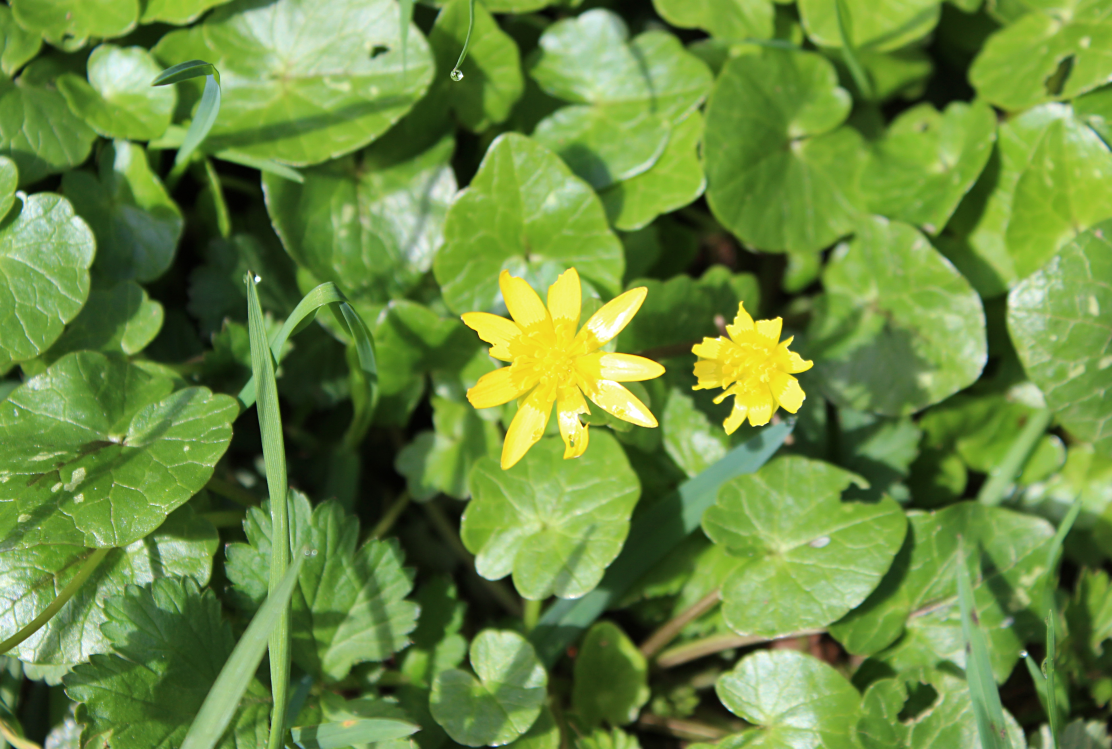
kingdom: Plantae
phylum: Tracheophyta
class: Magnoliopsida
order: Ranunculales
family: Ranunculaceae
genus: Ficaria
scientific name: Ficaria verna
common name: Lesser celandine
